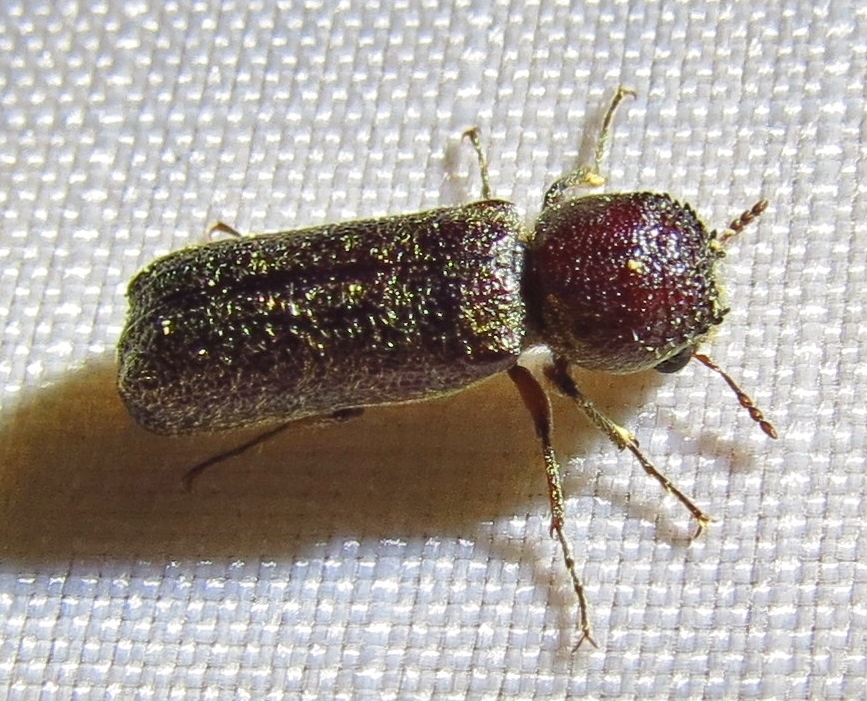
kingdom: Animalia
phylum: Arthropoda
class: Insecta
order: Coleoptera
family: Bostrichidae
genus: Amphicerus
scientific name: Amphicerus bicaudatus
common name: Apple twig borer
